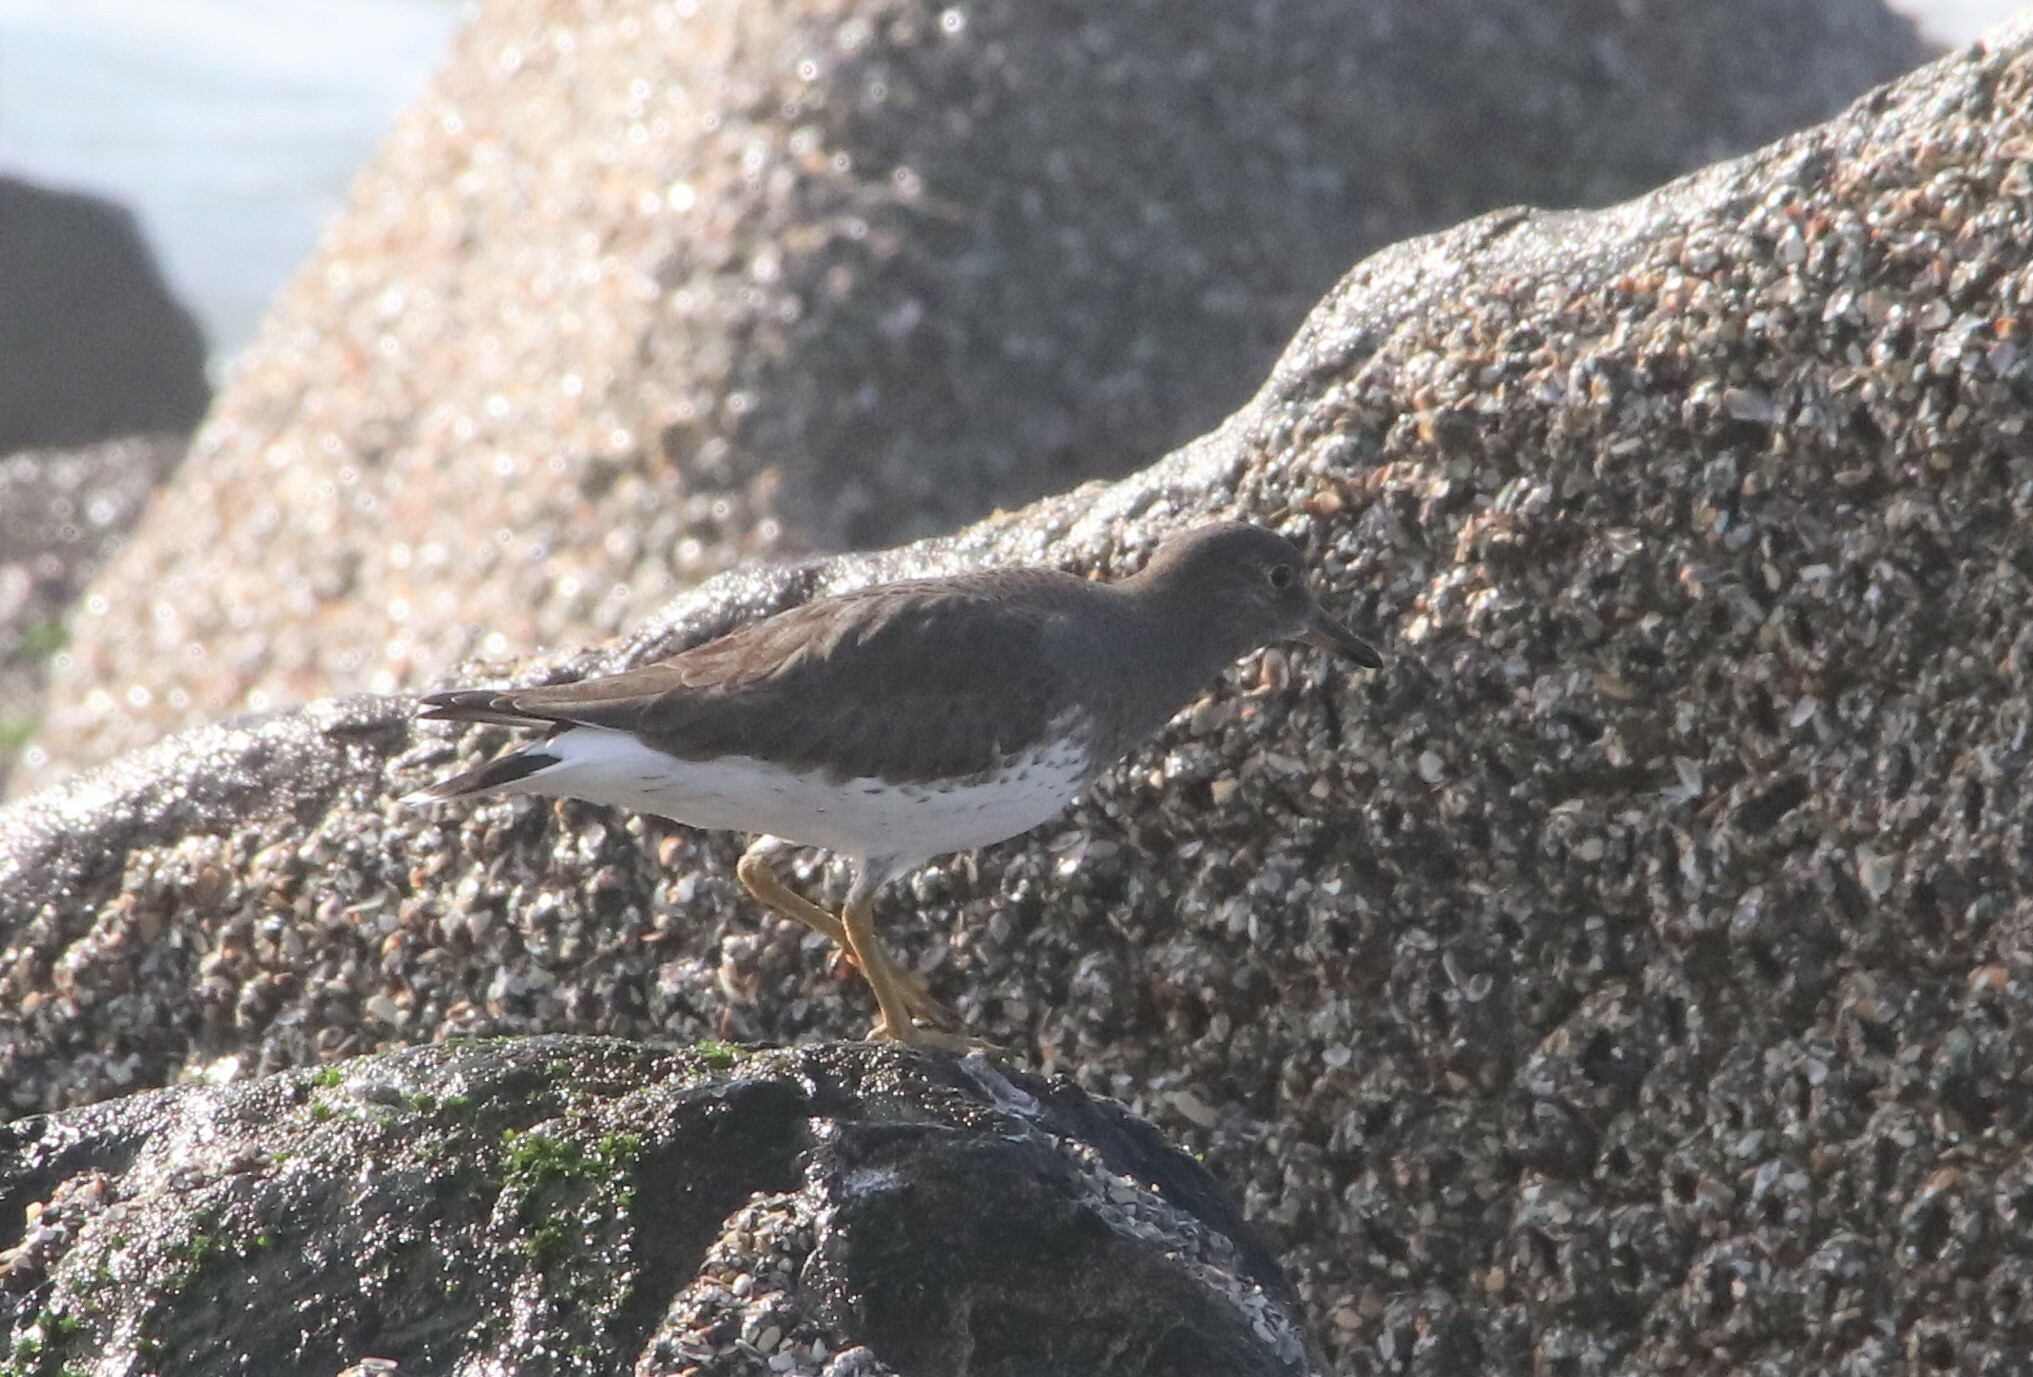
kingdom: Animalia
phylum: Chordata
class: Aves
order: Charadriiformes
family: Scolopacidae
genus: Calidris
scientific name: Calidris virgata
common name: Surfbird
